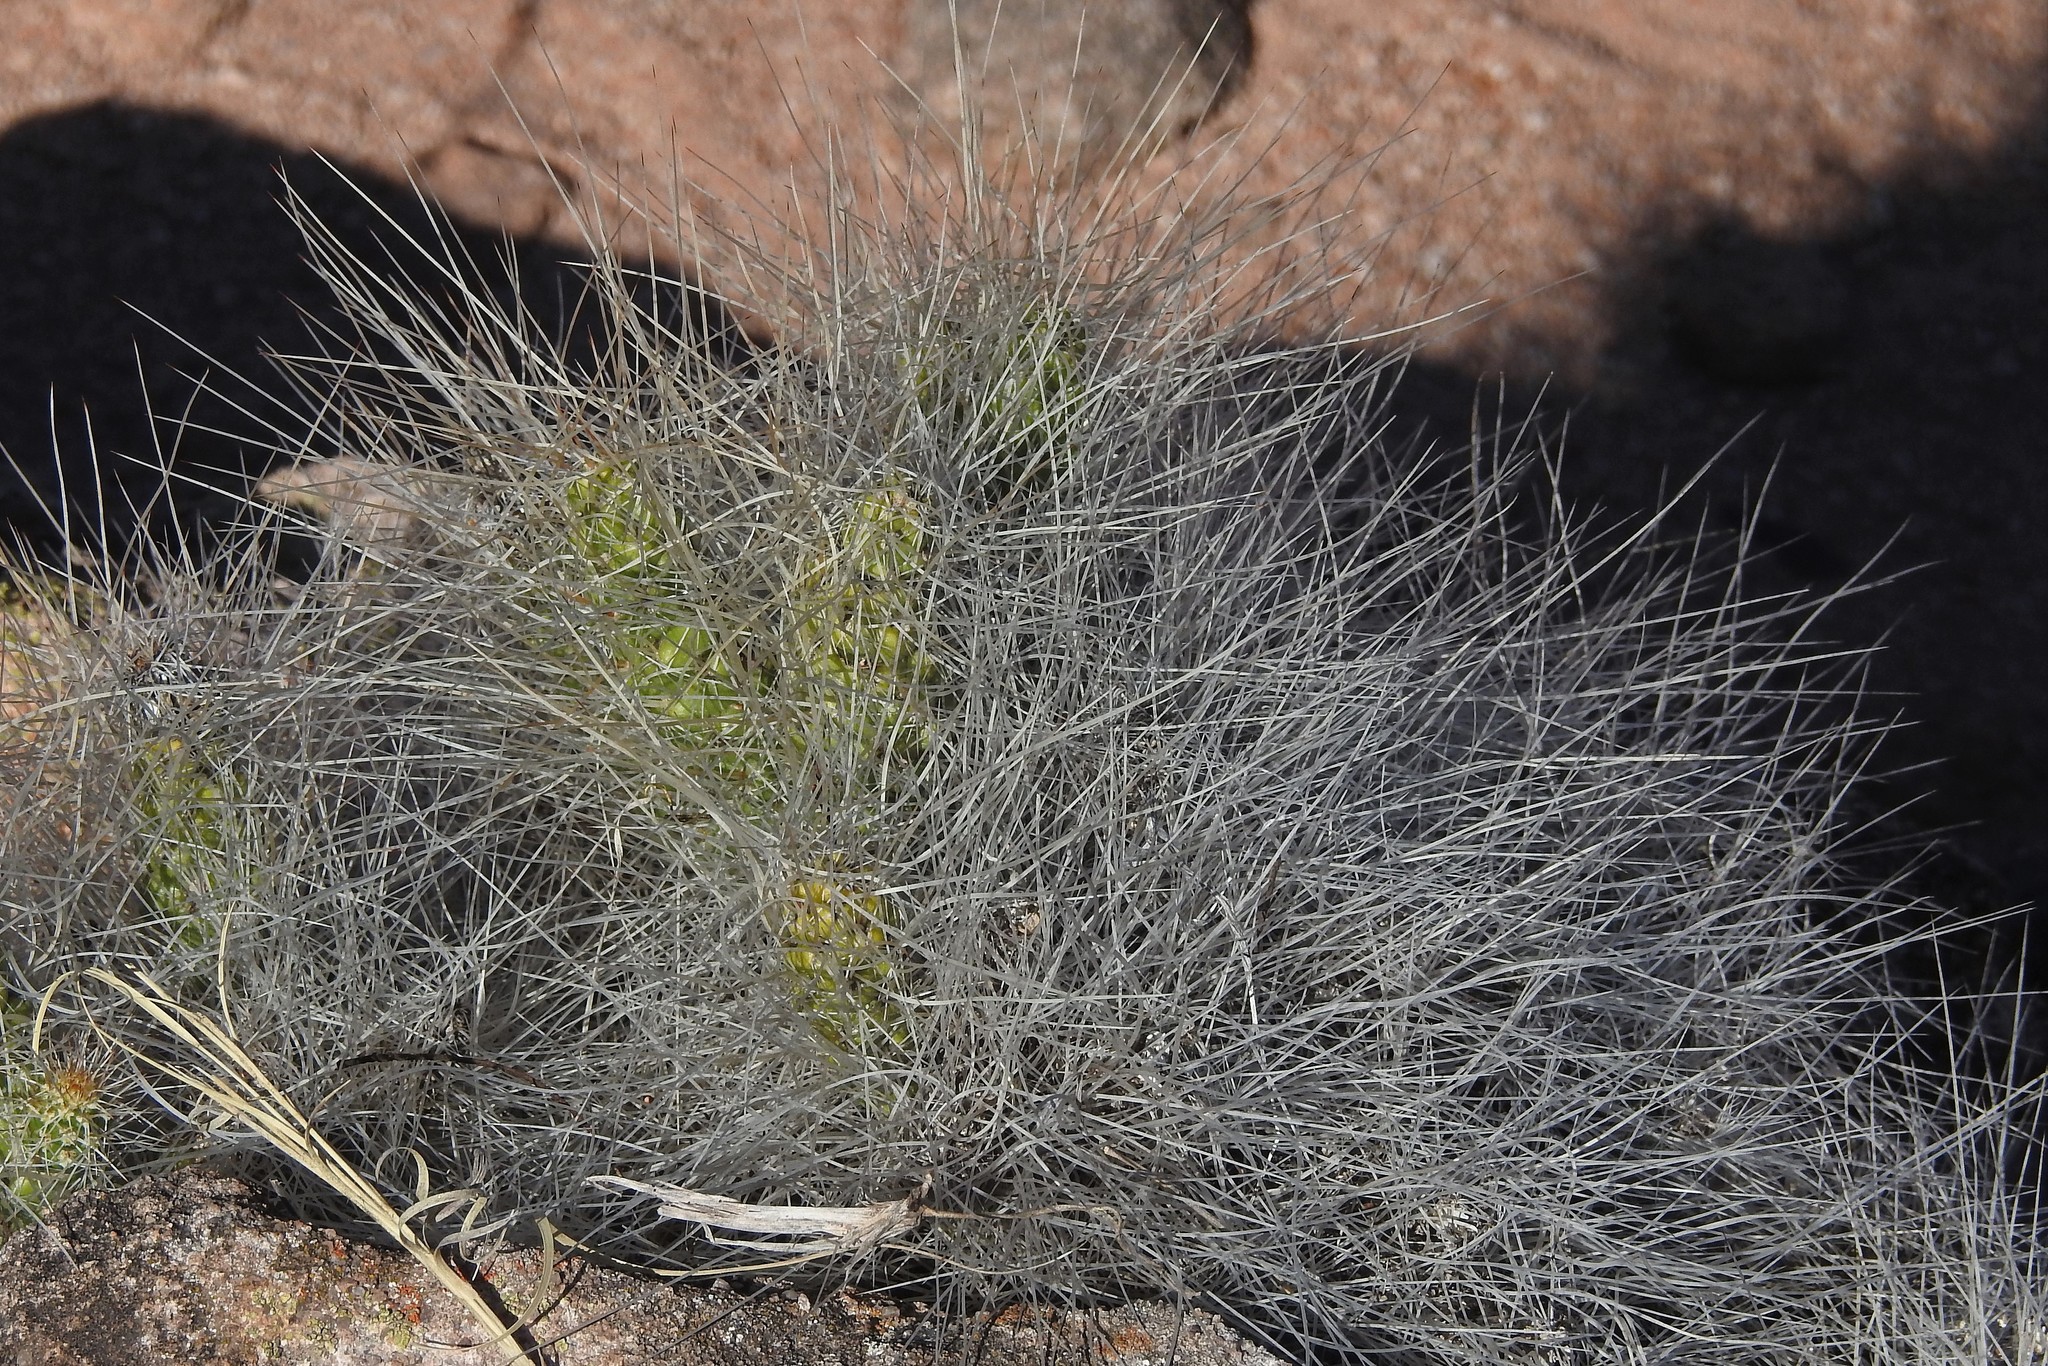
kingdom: Plantae
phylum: Tracheophyta
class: Magnoliopsida
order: Caryophyllales
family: Cactaceae
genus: Tephrocactus
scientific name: Tephrocactus weberi
